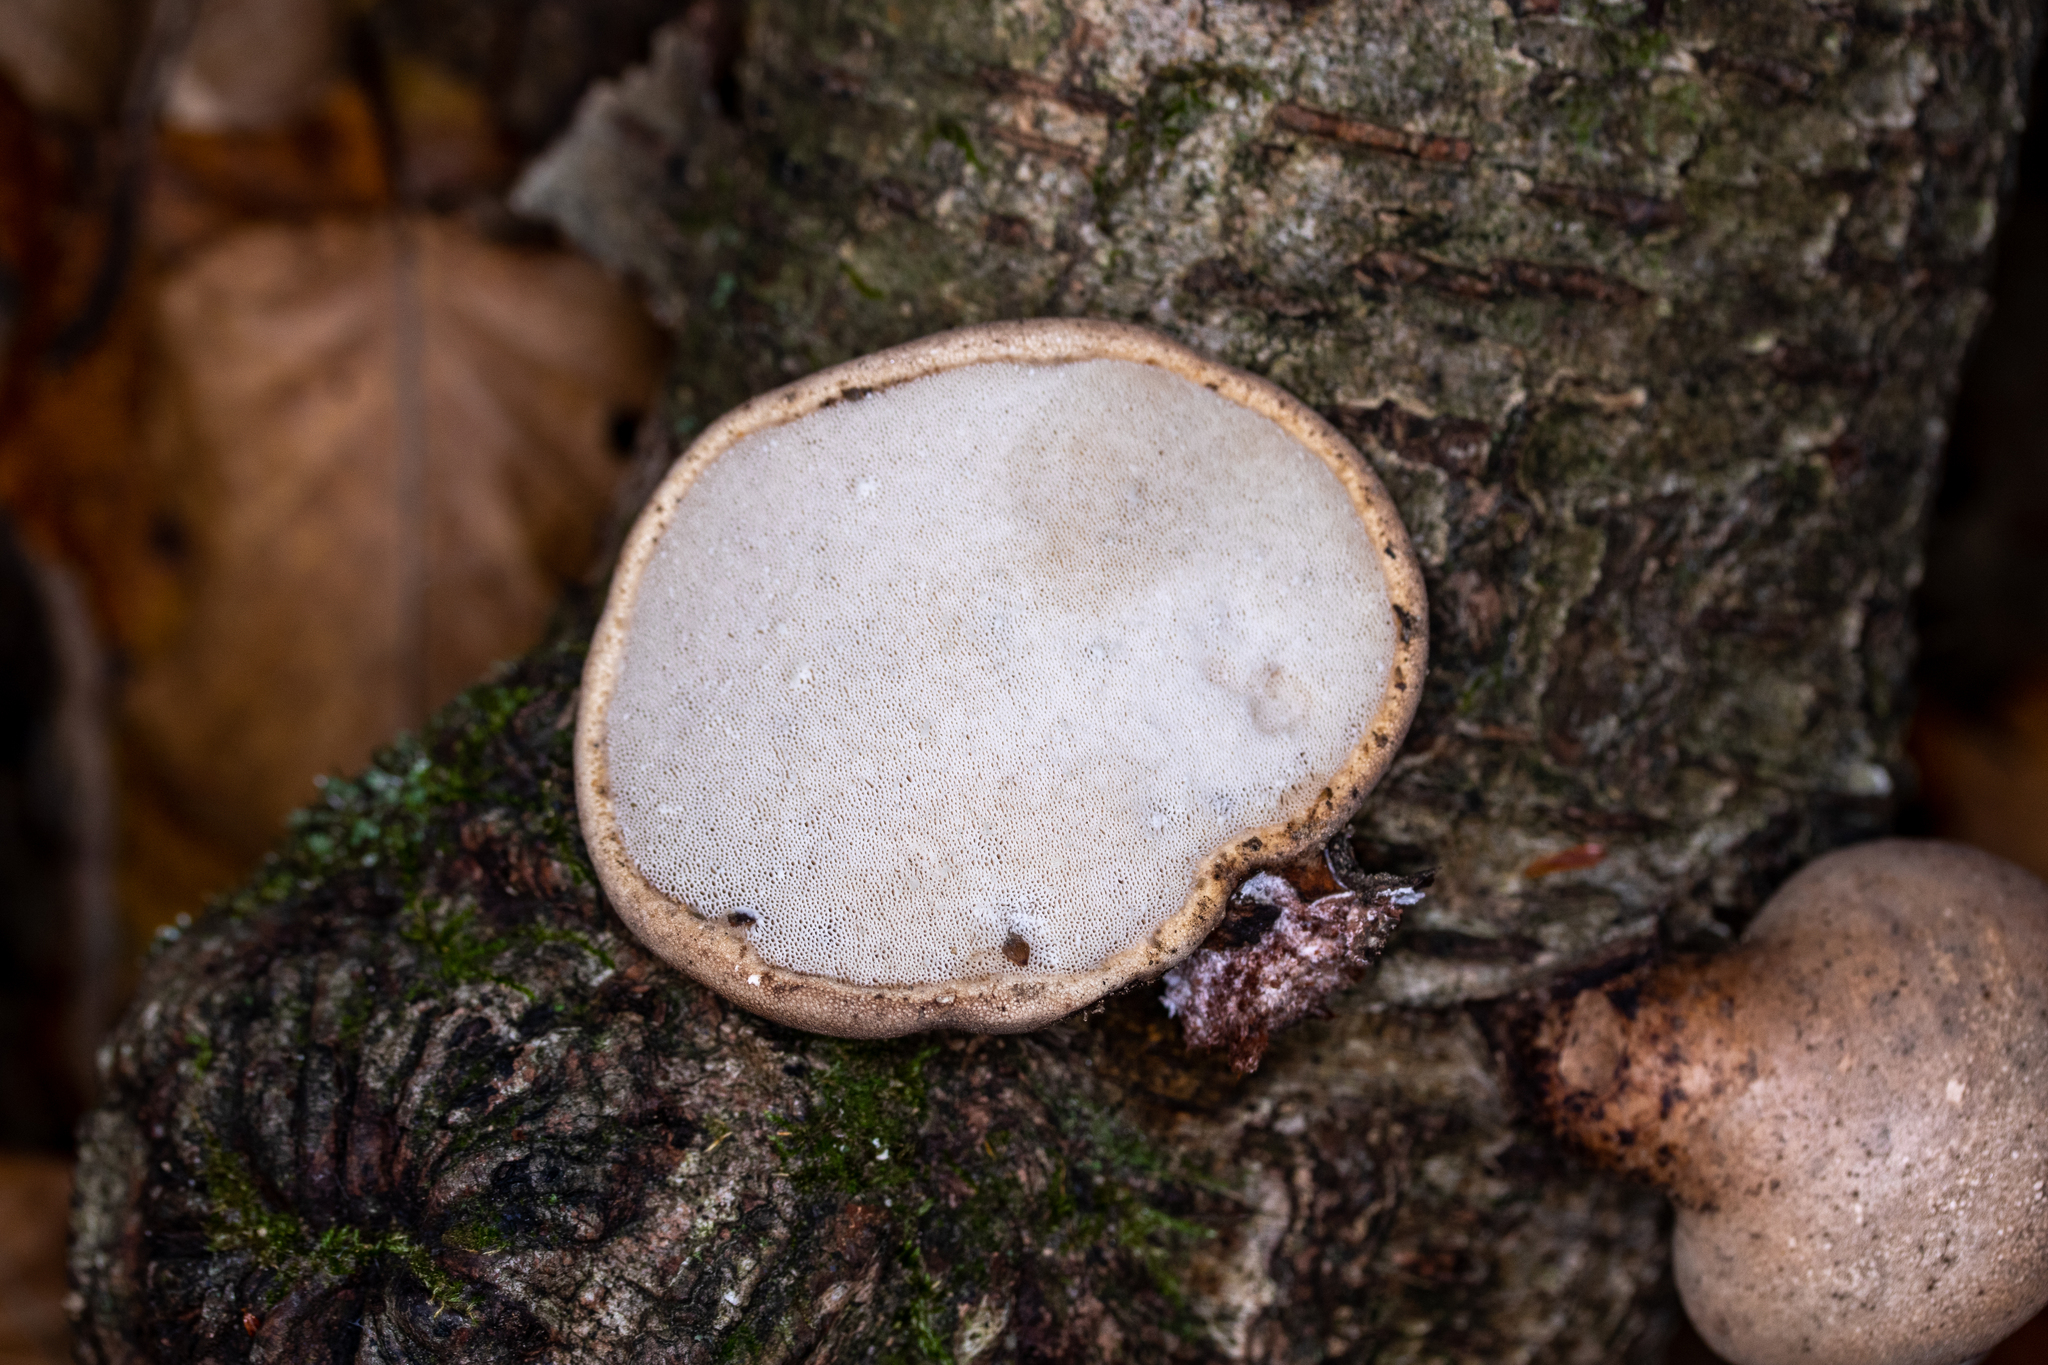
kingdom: Fungi
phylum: Basidiomycota
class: Agaricomycetes
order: Polyporales
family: Fomitopsidaceae
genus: Fomitopsis
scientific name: Fomitopsis betulina
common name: Birch polypore
